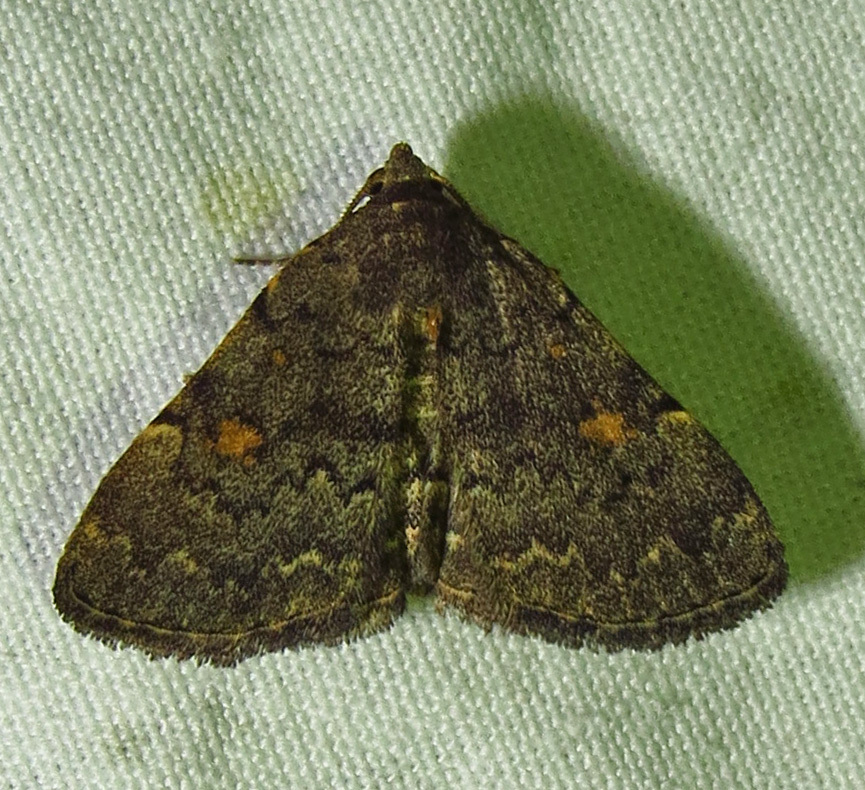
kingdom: Animalia
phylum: Arthropoda
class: Insecta
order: Lepidoptera
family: Erebidae
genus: Idia
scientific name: Idia aemula
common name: Common idia moth
